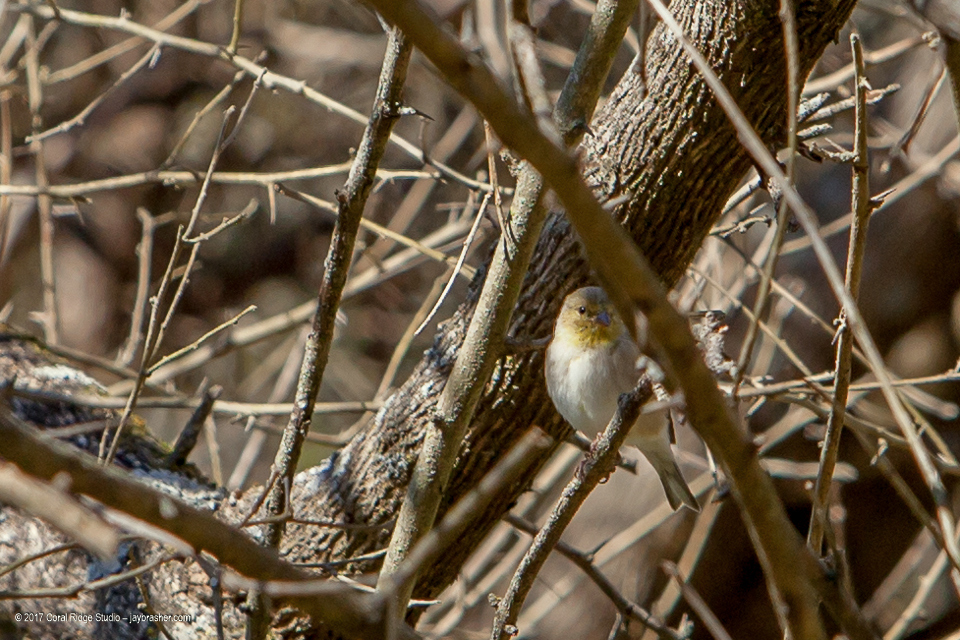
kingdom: Animalia
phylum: Chordata
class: Aves
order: Passeriformes
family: Fringillidae
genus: Spinus
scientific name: Spinus tristis
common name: American goldfinch
